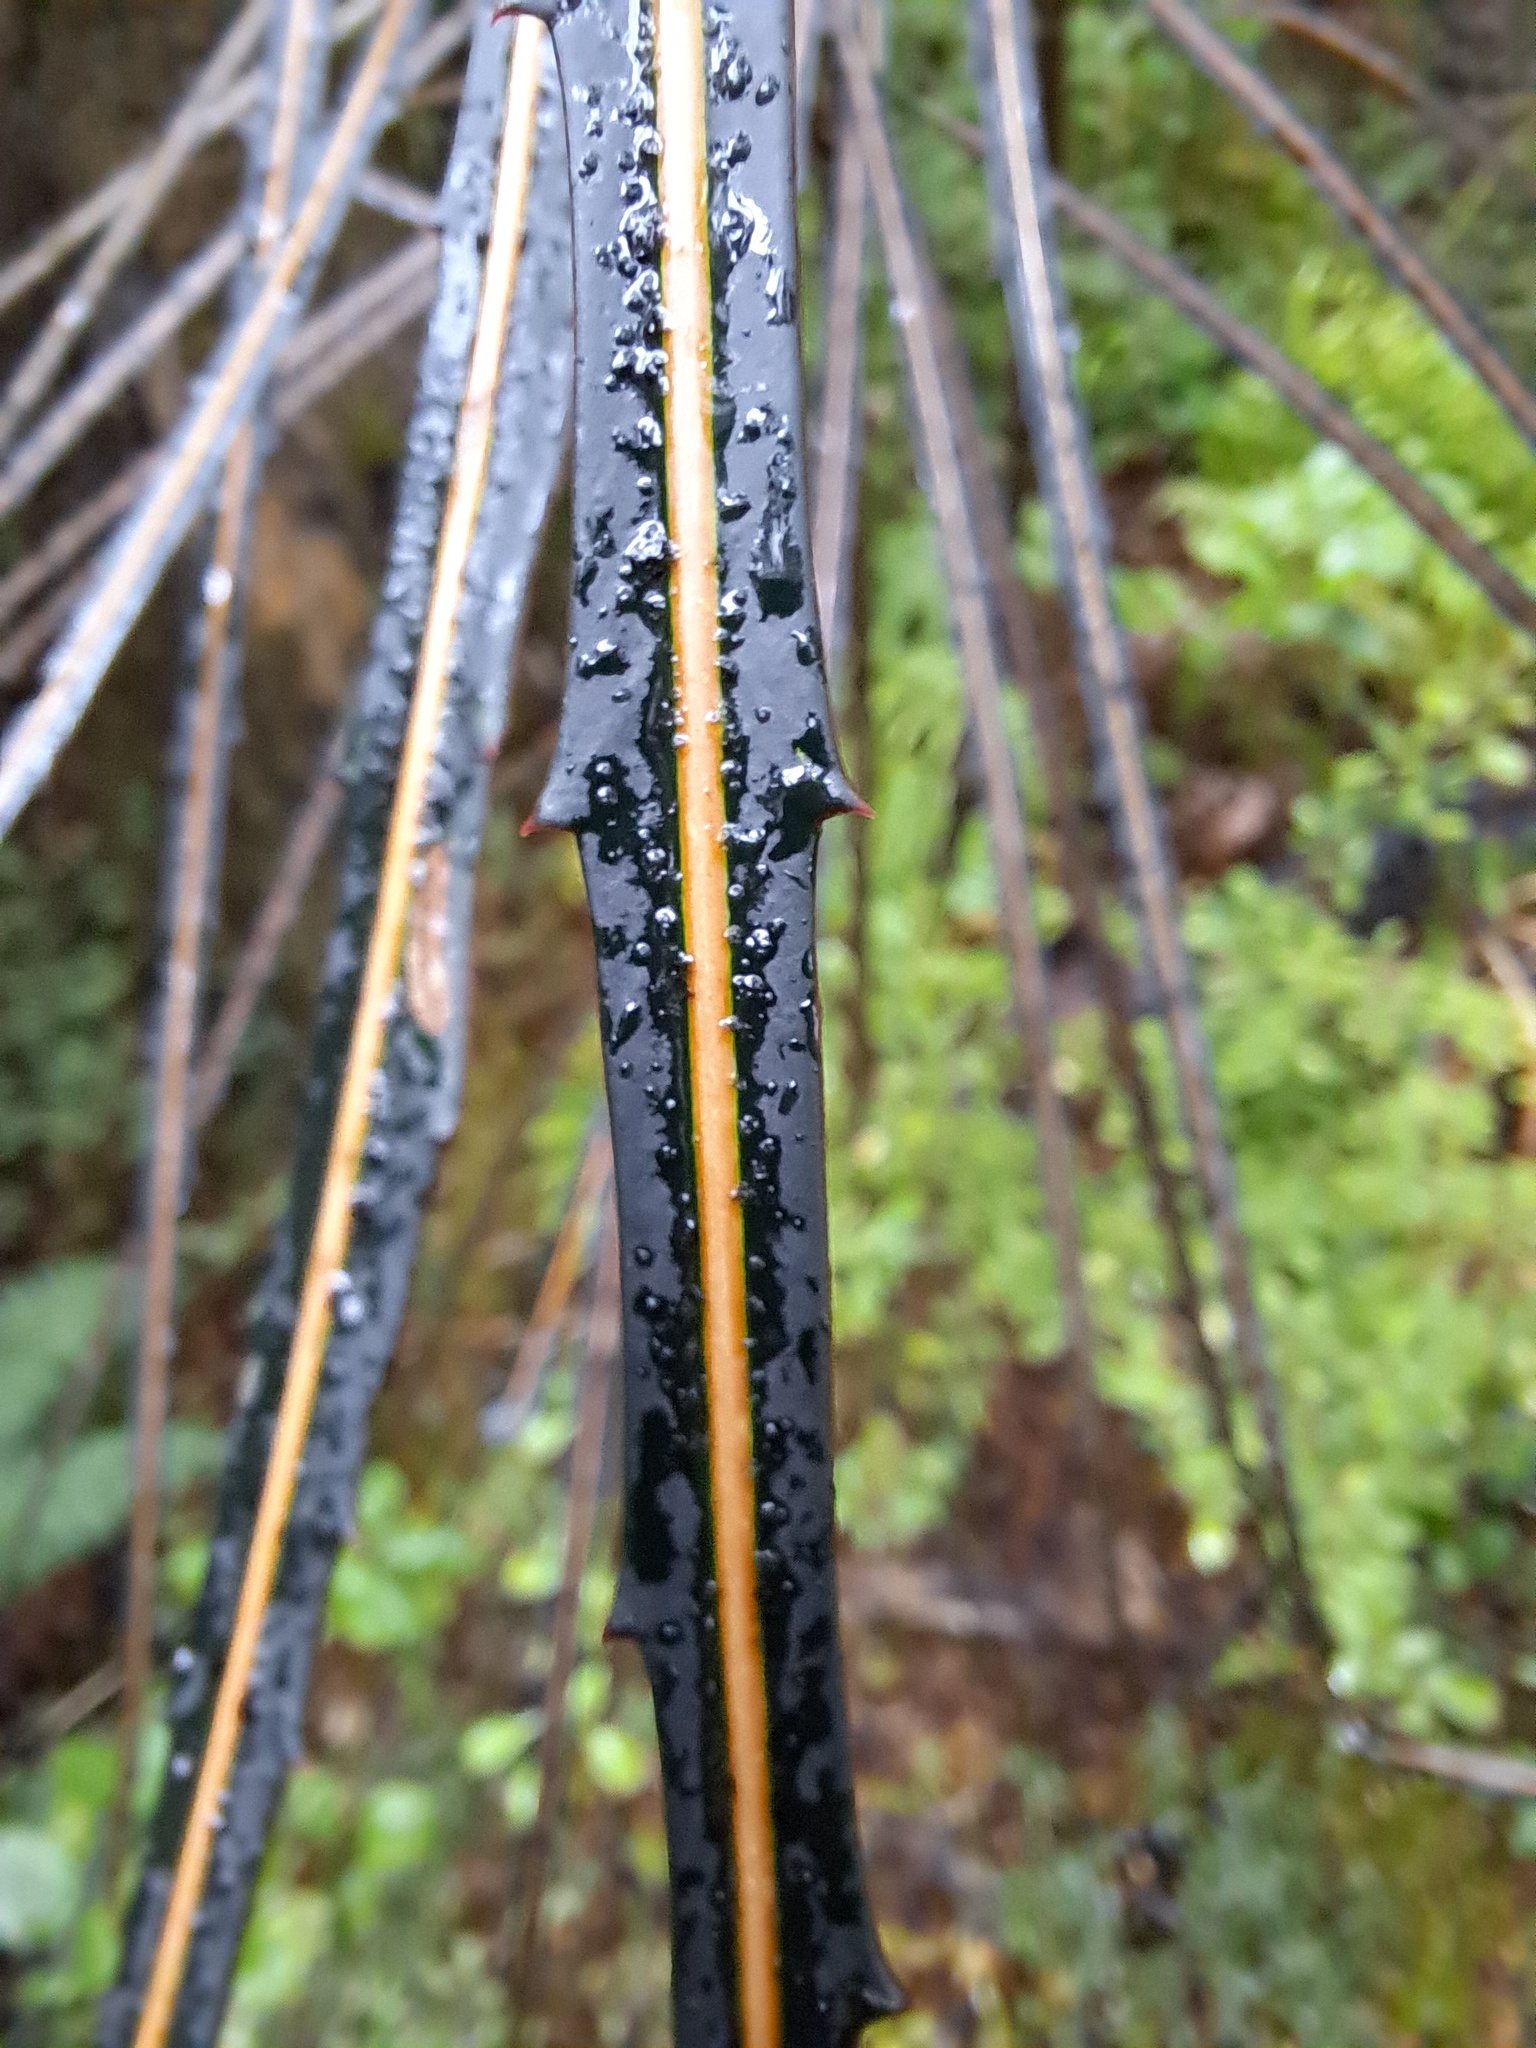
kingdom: Plantae
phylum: Tracheophyta
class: Magnoliopsida
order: Apiales
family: Araliaceae
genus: Pseudopanax
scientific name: Pseudopanax crassifolius
